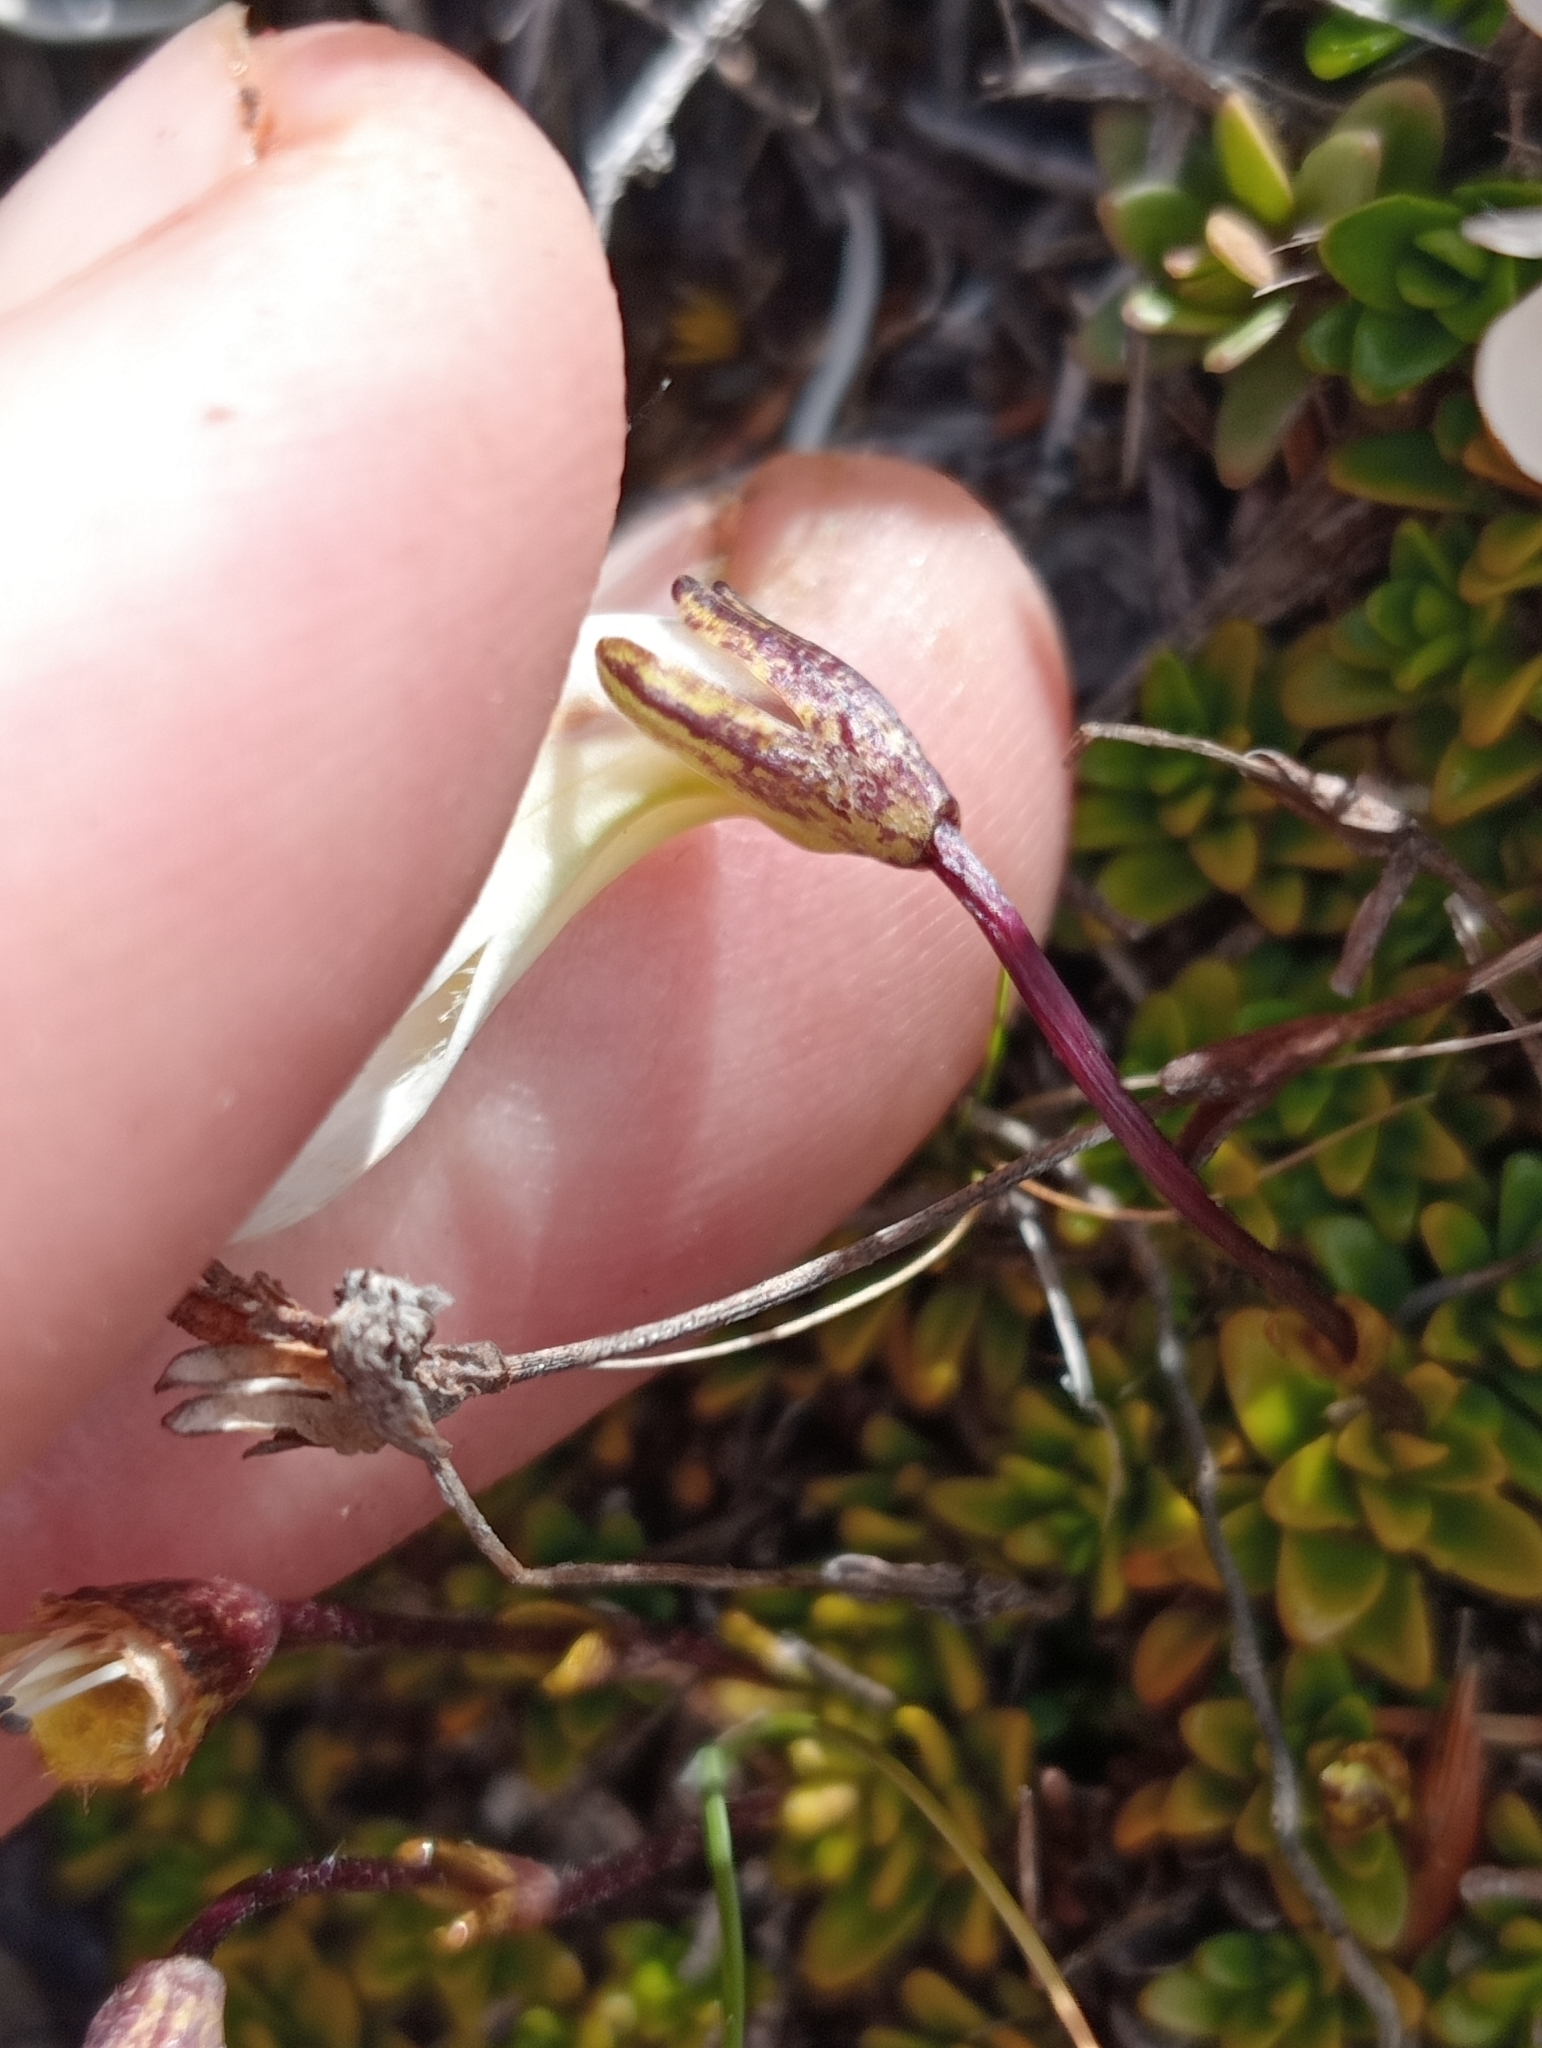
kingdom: Plantae
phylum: Tracheophyta
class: Magnoliopsida
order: Lamiales
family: Plantaginaceae
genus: Ourisia
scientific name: Ourisia caespitosa
